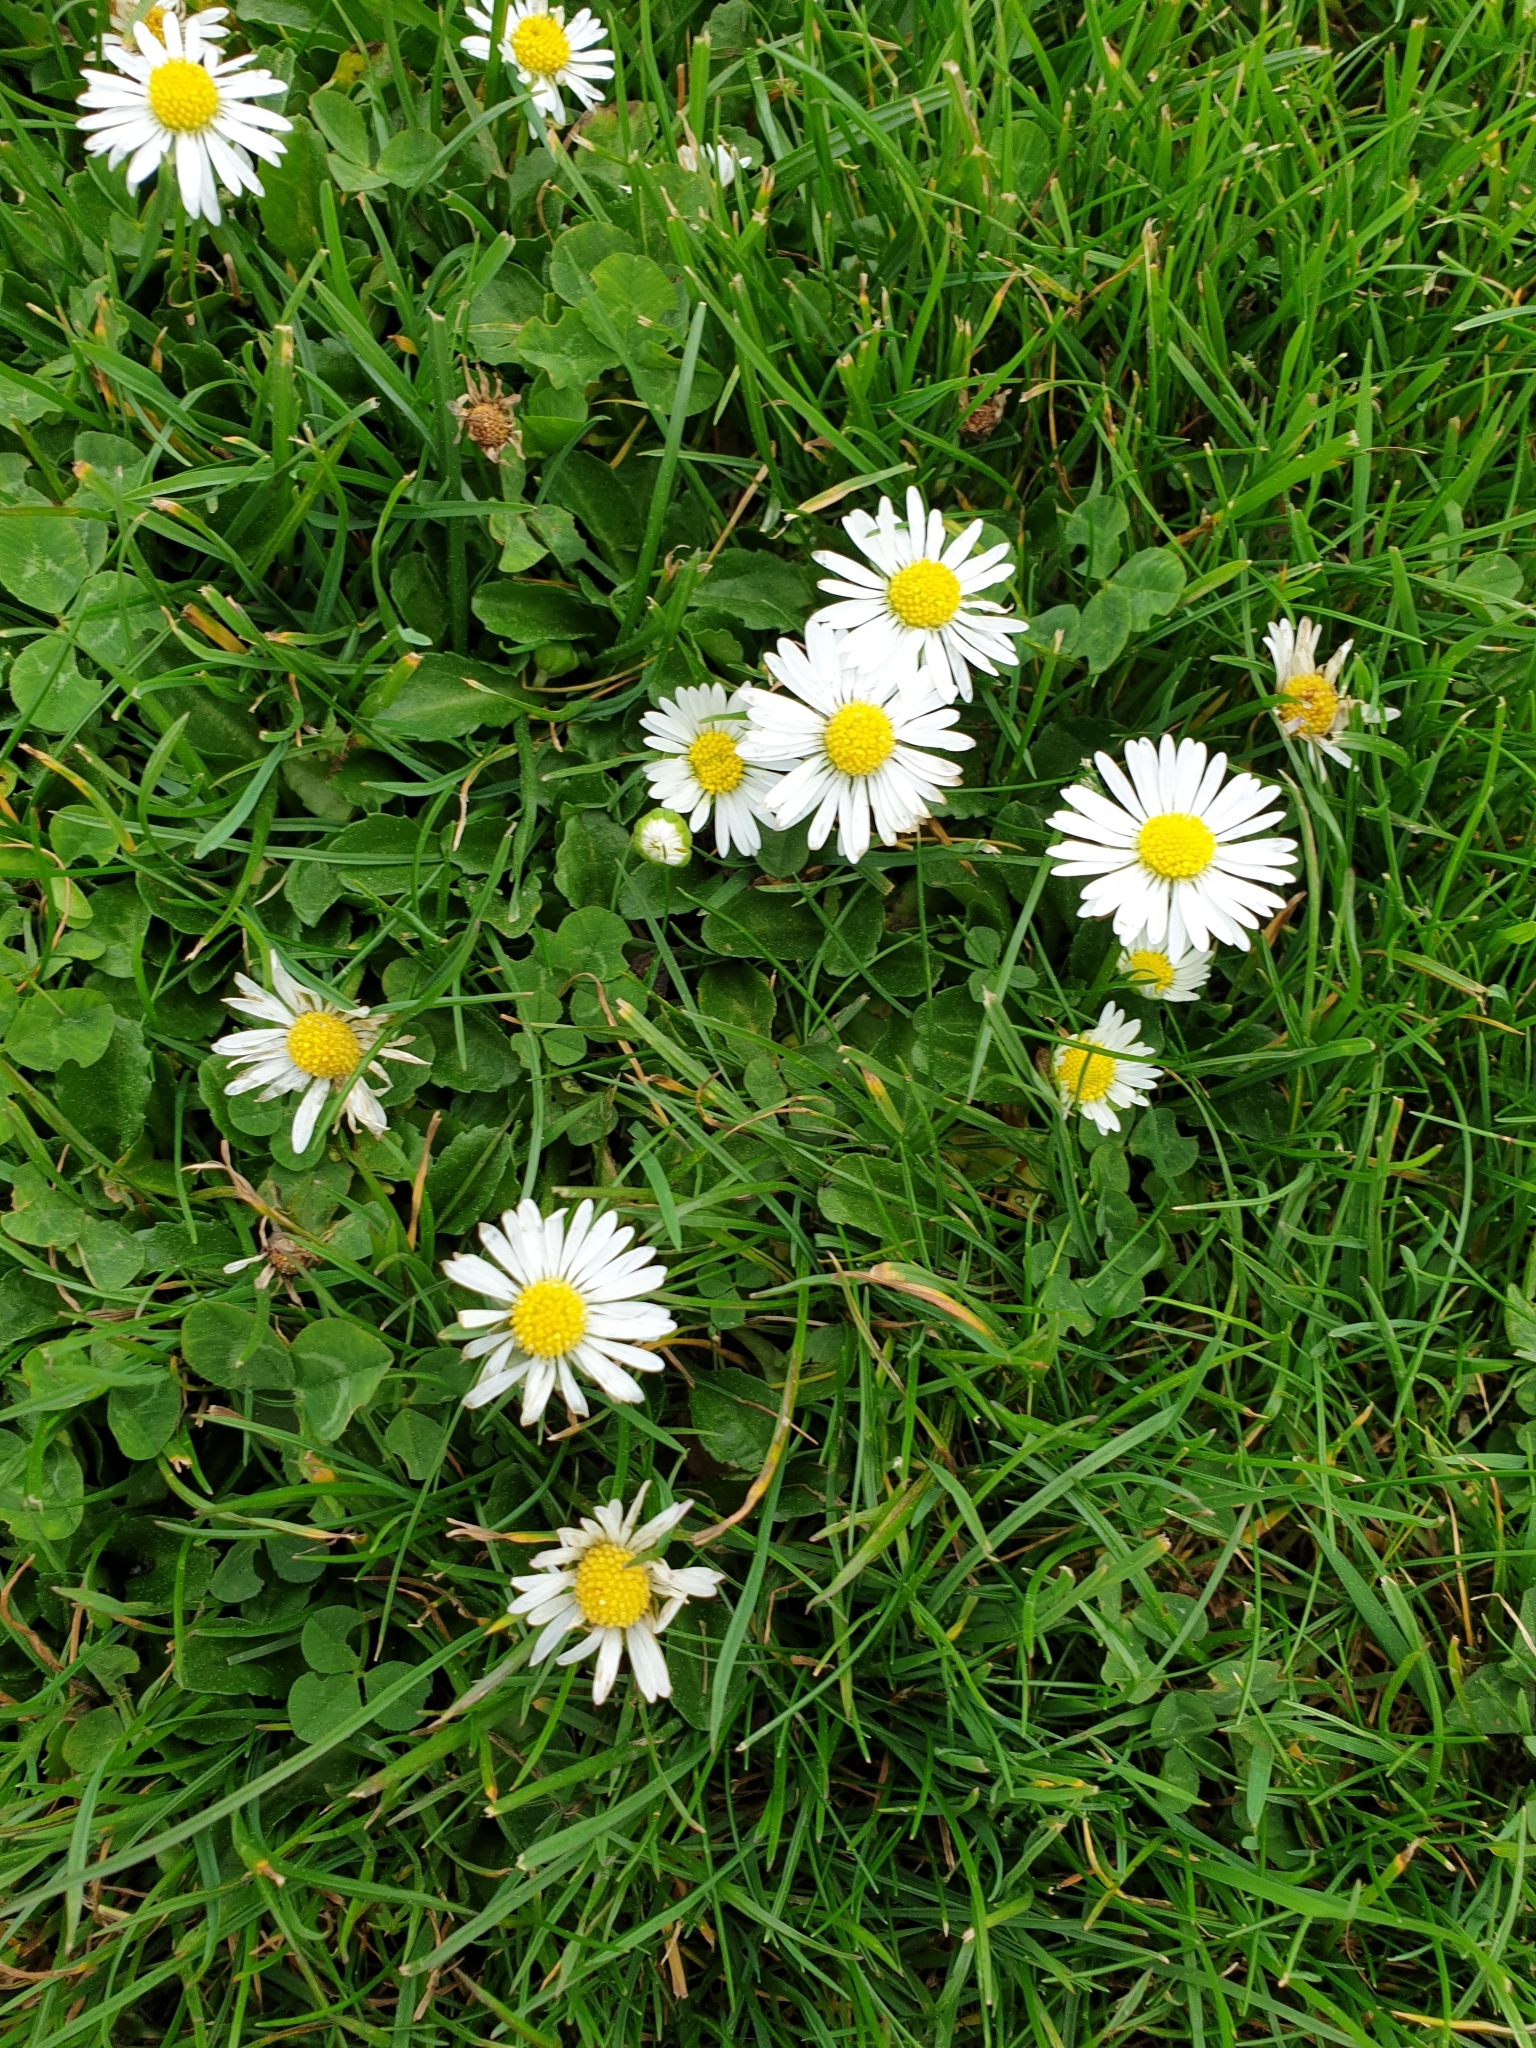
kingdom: Plantae
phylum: Tracheophyta
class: Magnoliopsida
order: Asterales
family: Asteraceae
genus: Bellis
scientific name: Bellis perennis
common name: Lawndaisy
